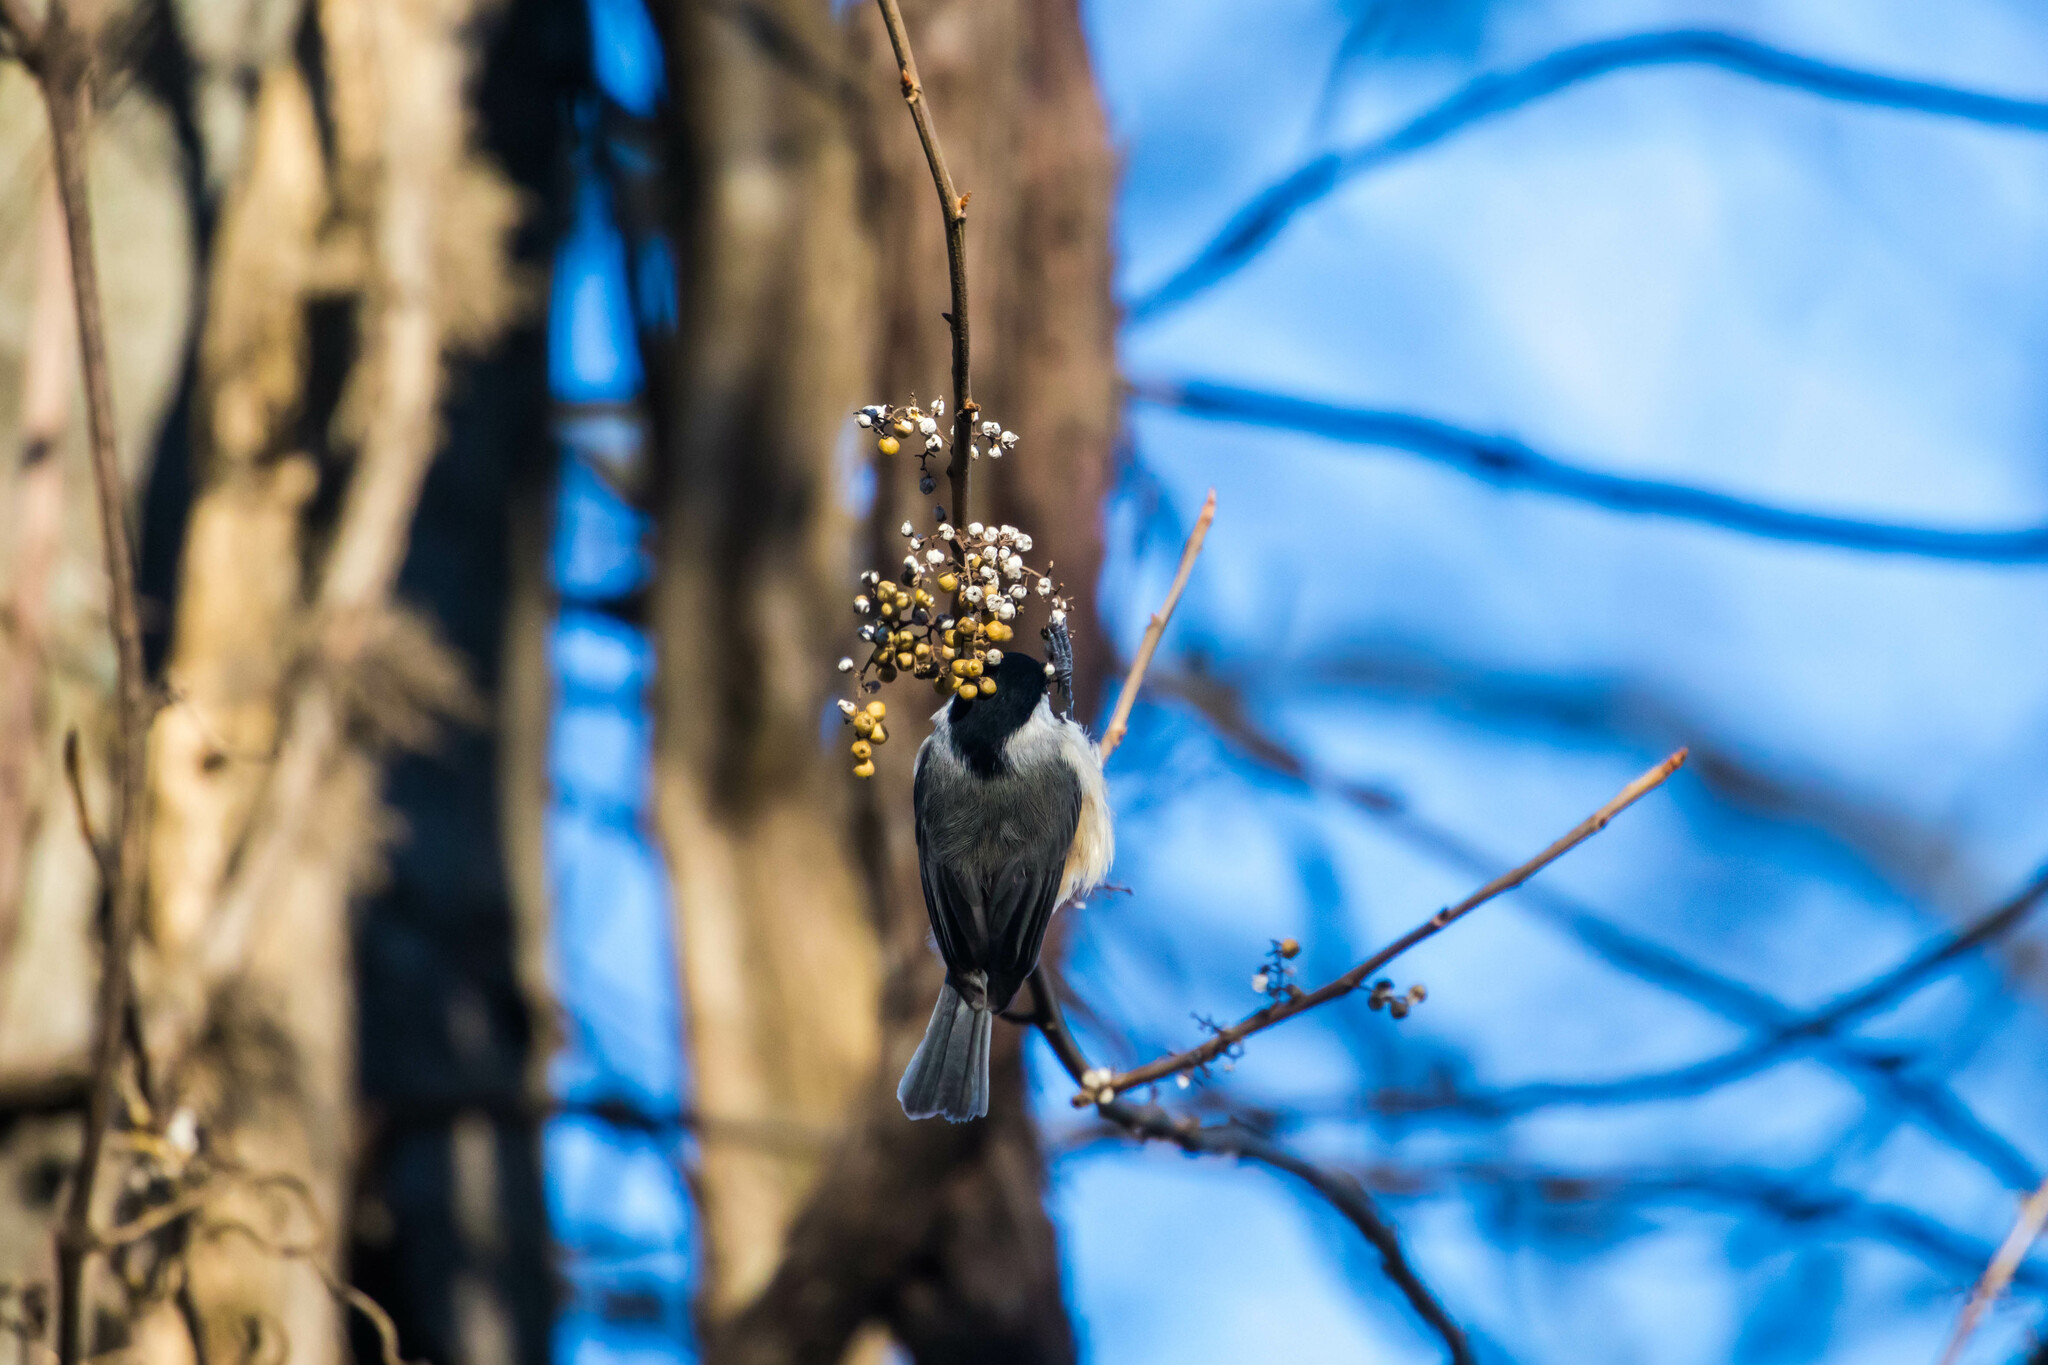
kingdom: Animalia
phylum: Chordata
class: Aves
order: Passeriformes
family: Paridae
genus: Poecile
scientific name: Poecile carolinensis
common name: Carolina chickadee
